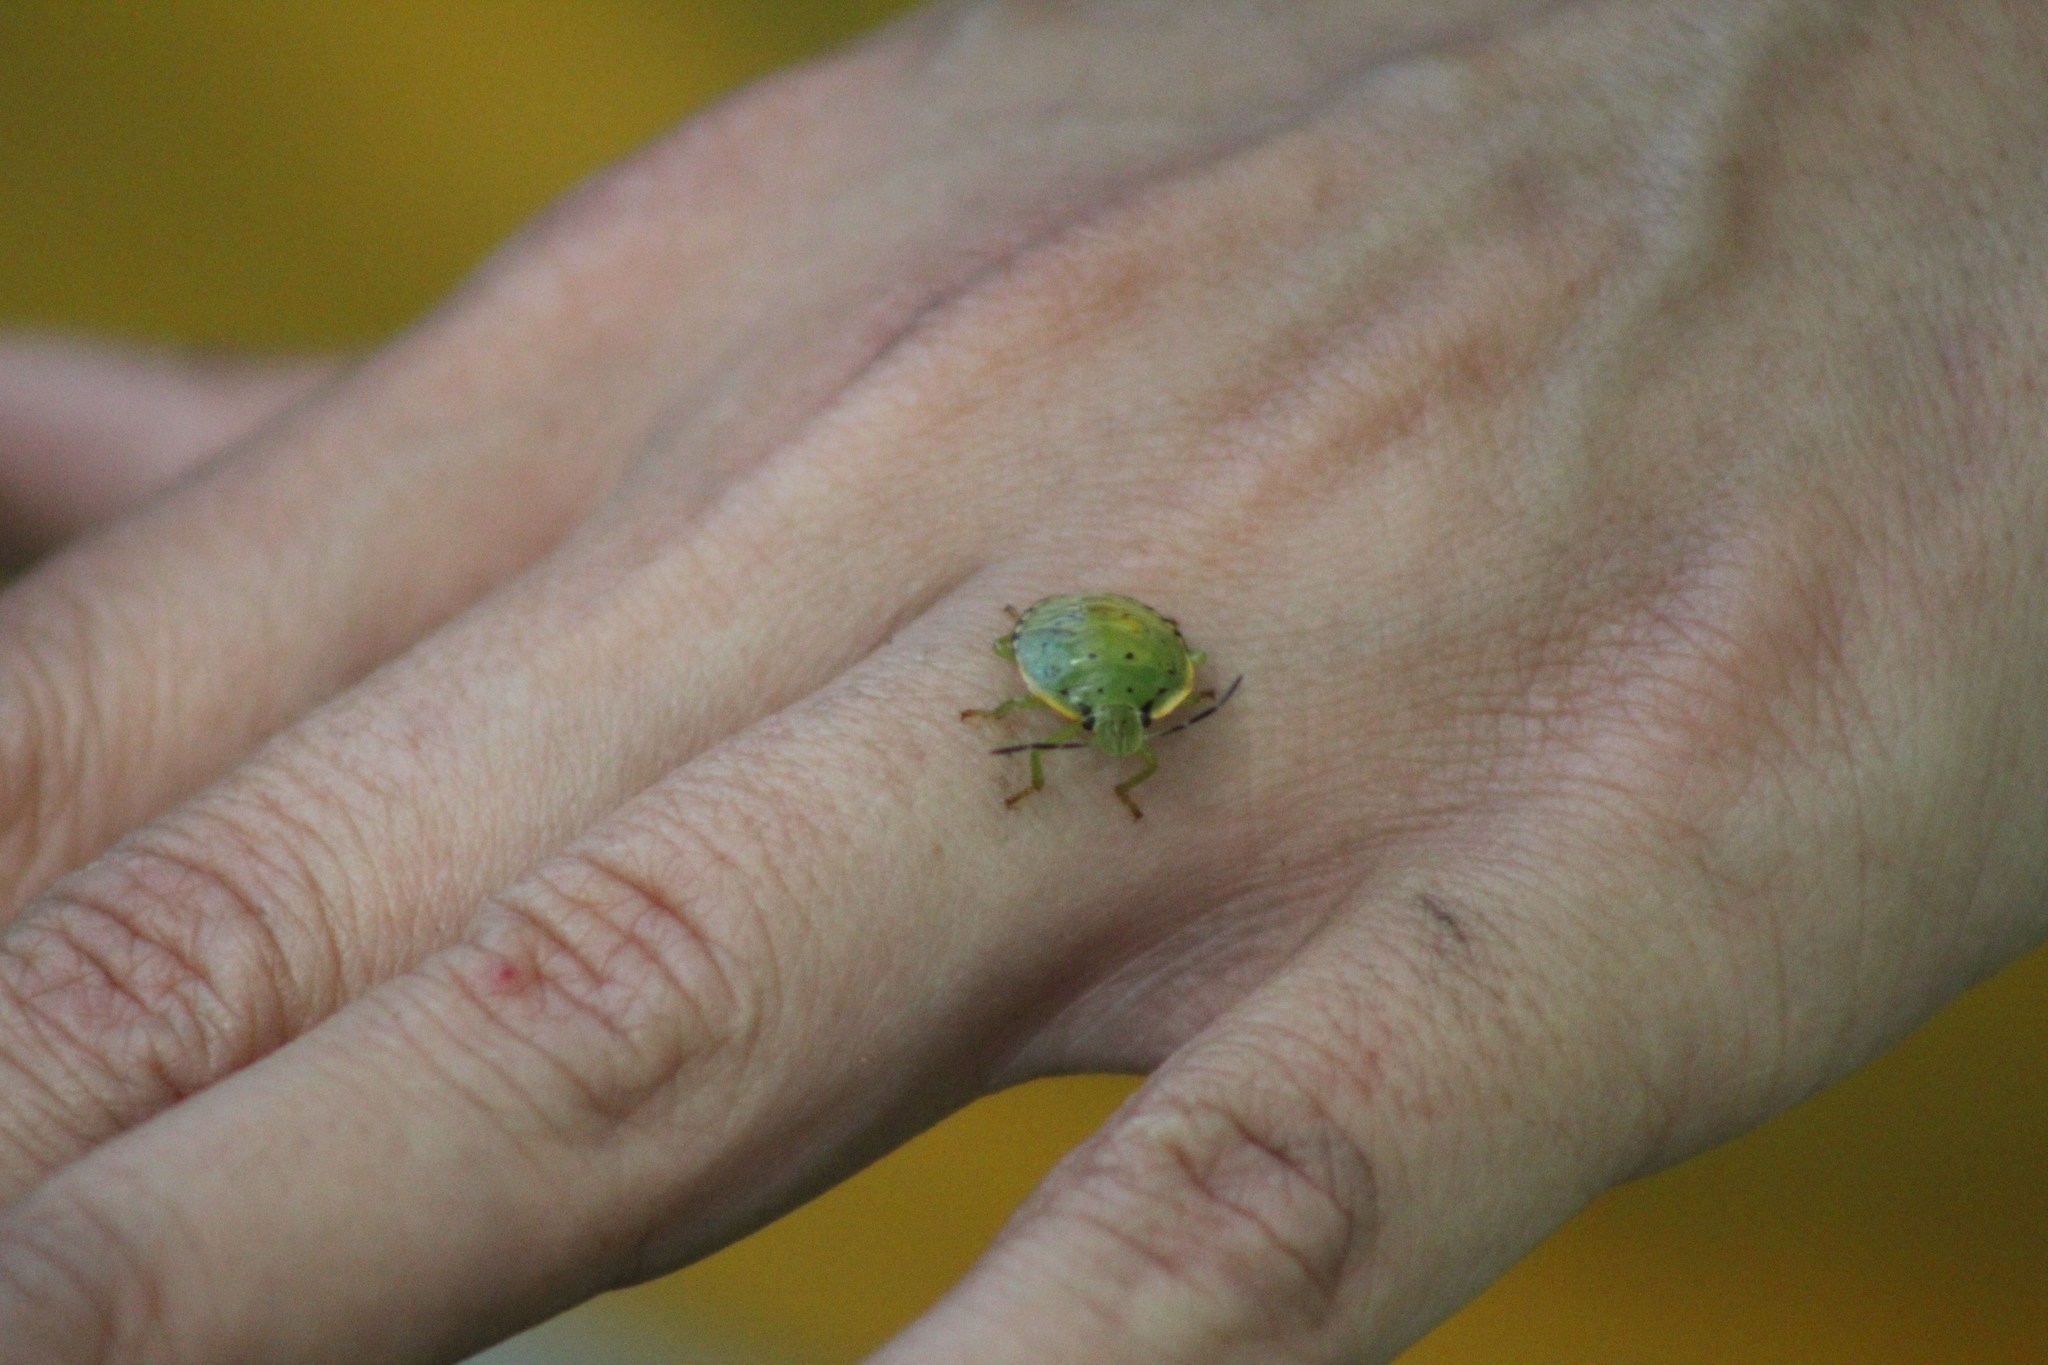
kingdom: Animalia
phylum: Arthropoda
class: Insecta
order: Hemiptera
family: Pentatomidae
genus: Chinavia
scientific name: Chinavia hilaris
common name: Green stink bug
